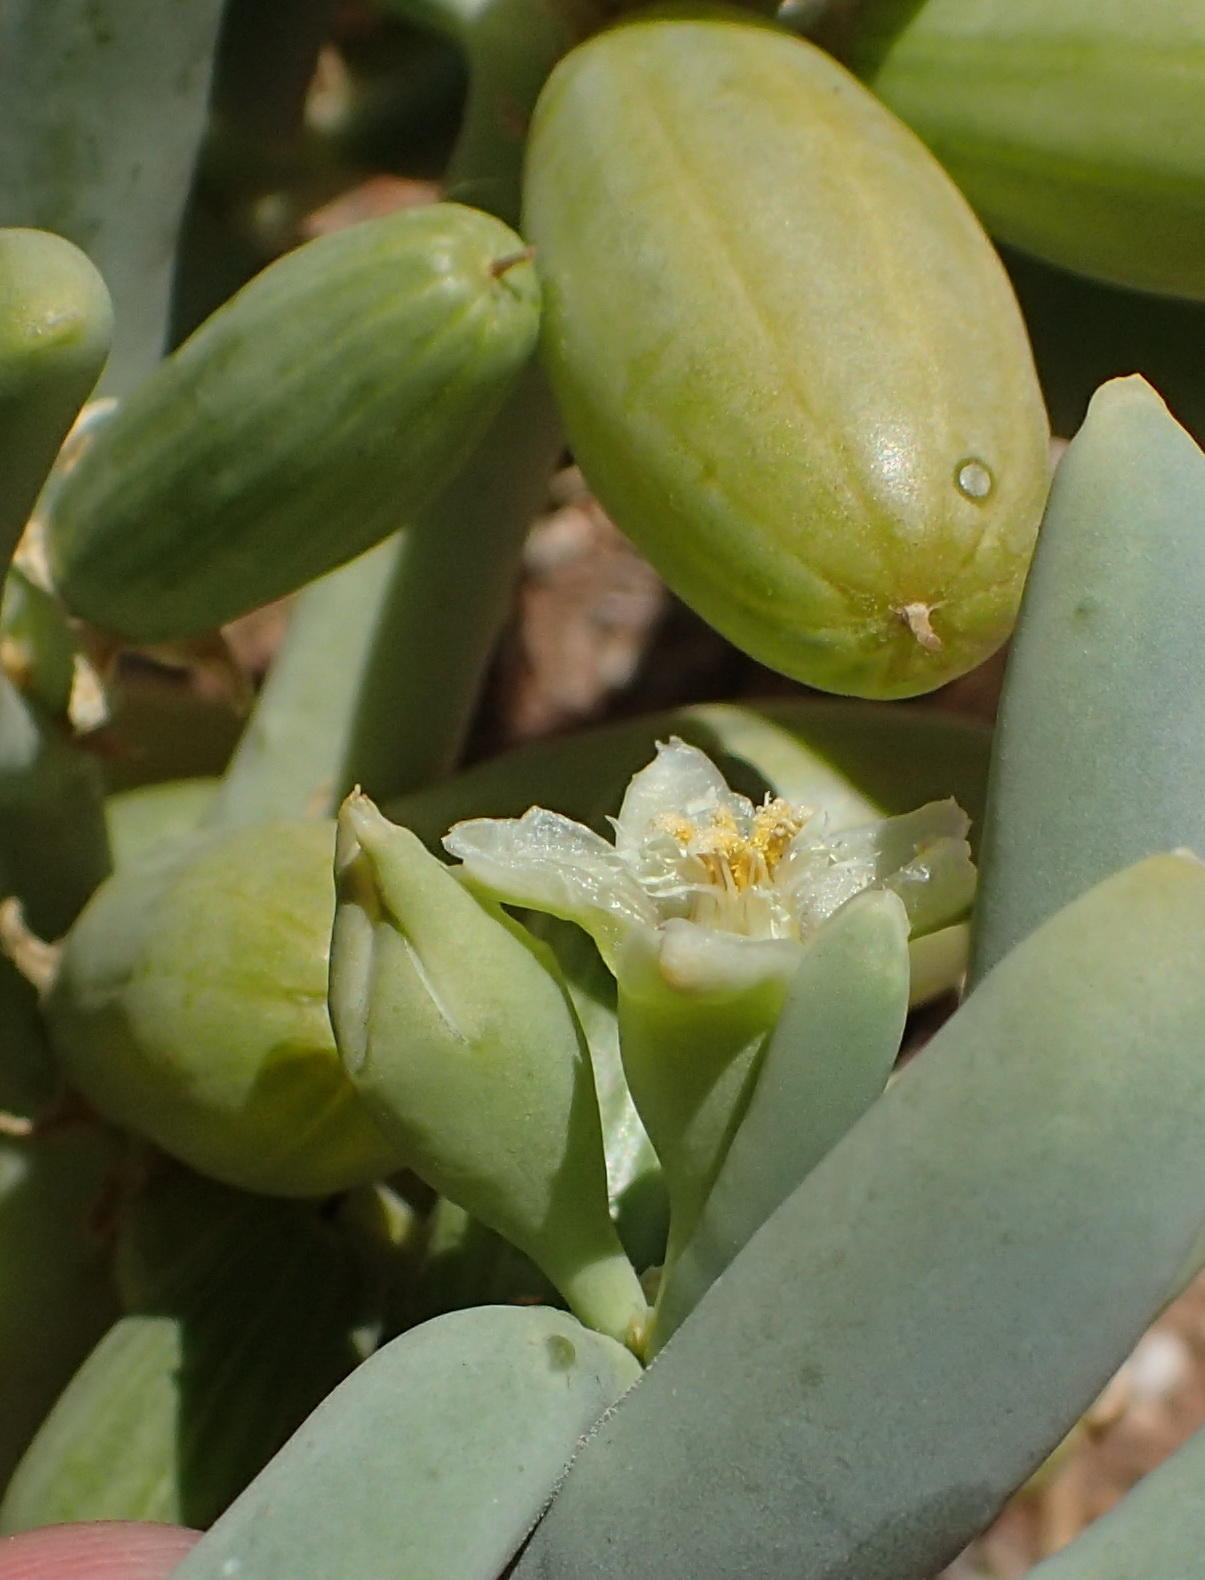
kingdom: Plantae
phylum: Tracheophyta
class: Magnoliopsida
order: Zygophyllales
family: Zygophyllaceae
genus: Augea
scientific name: Augea capensis
